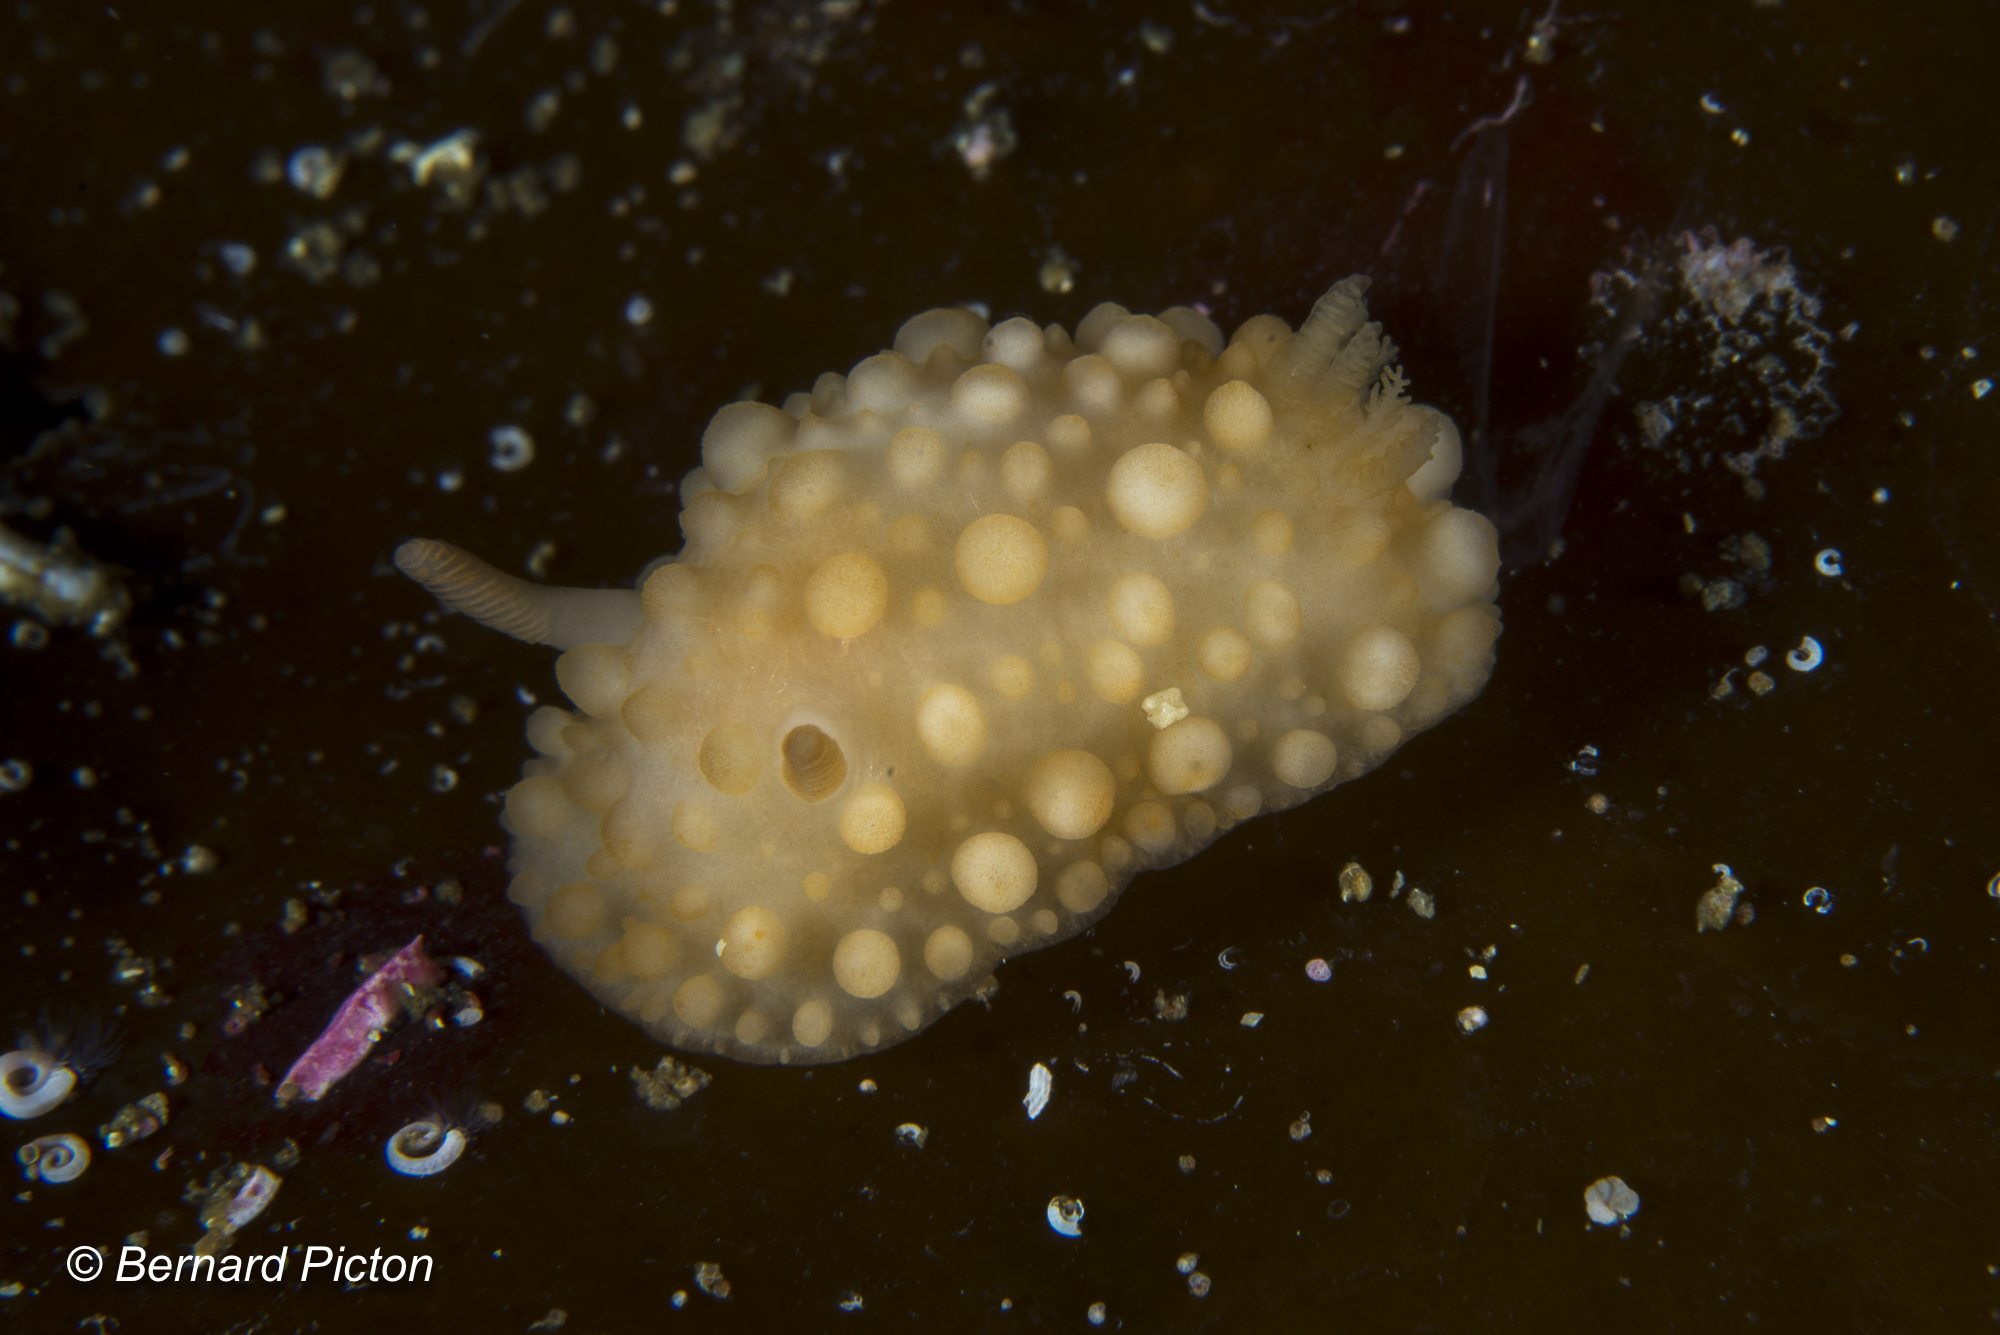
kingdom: Animalia
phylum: Mollusca
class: Gastropoda
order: Nudibranchia
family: Onchidorididae
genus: Adalaria
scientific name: Adalaria loveni
